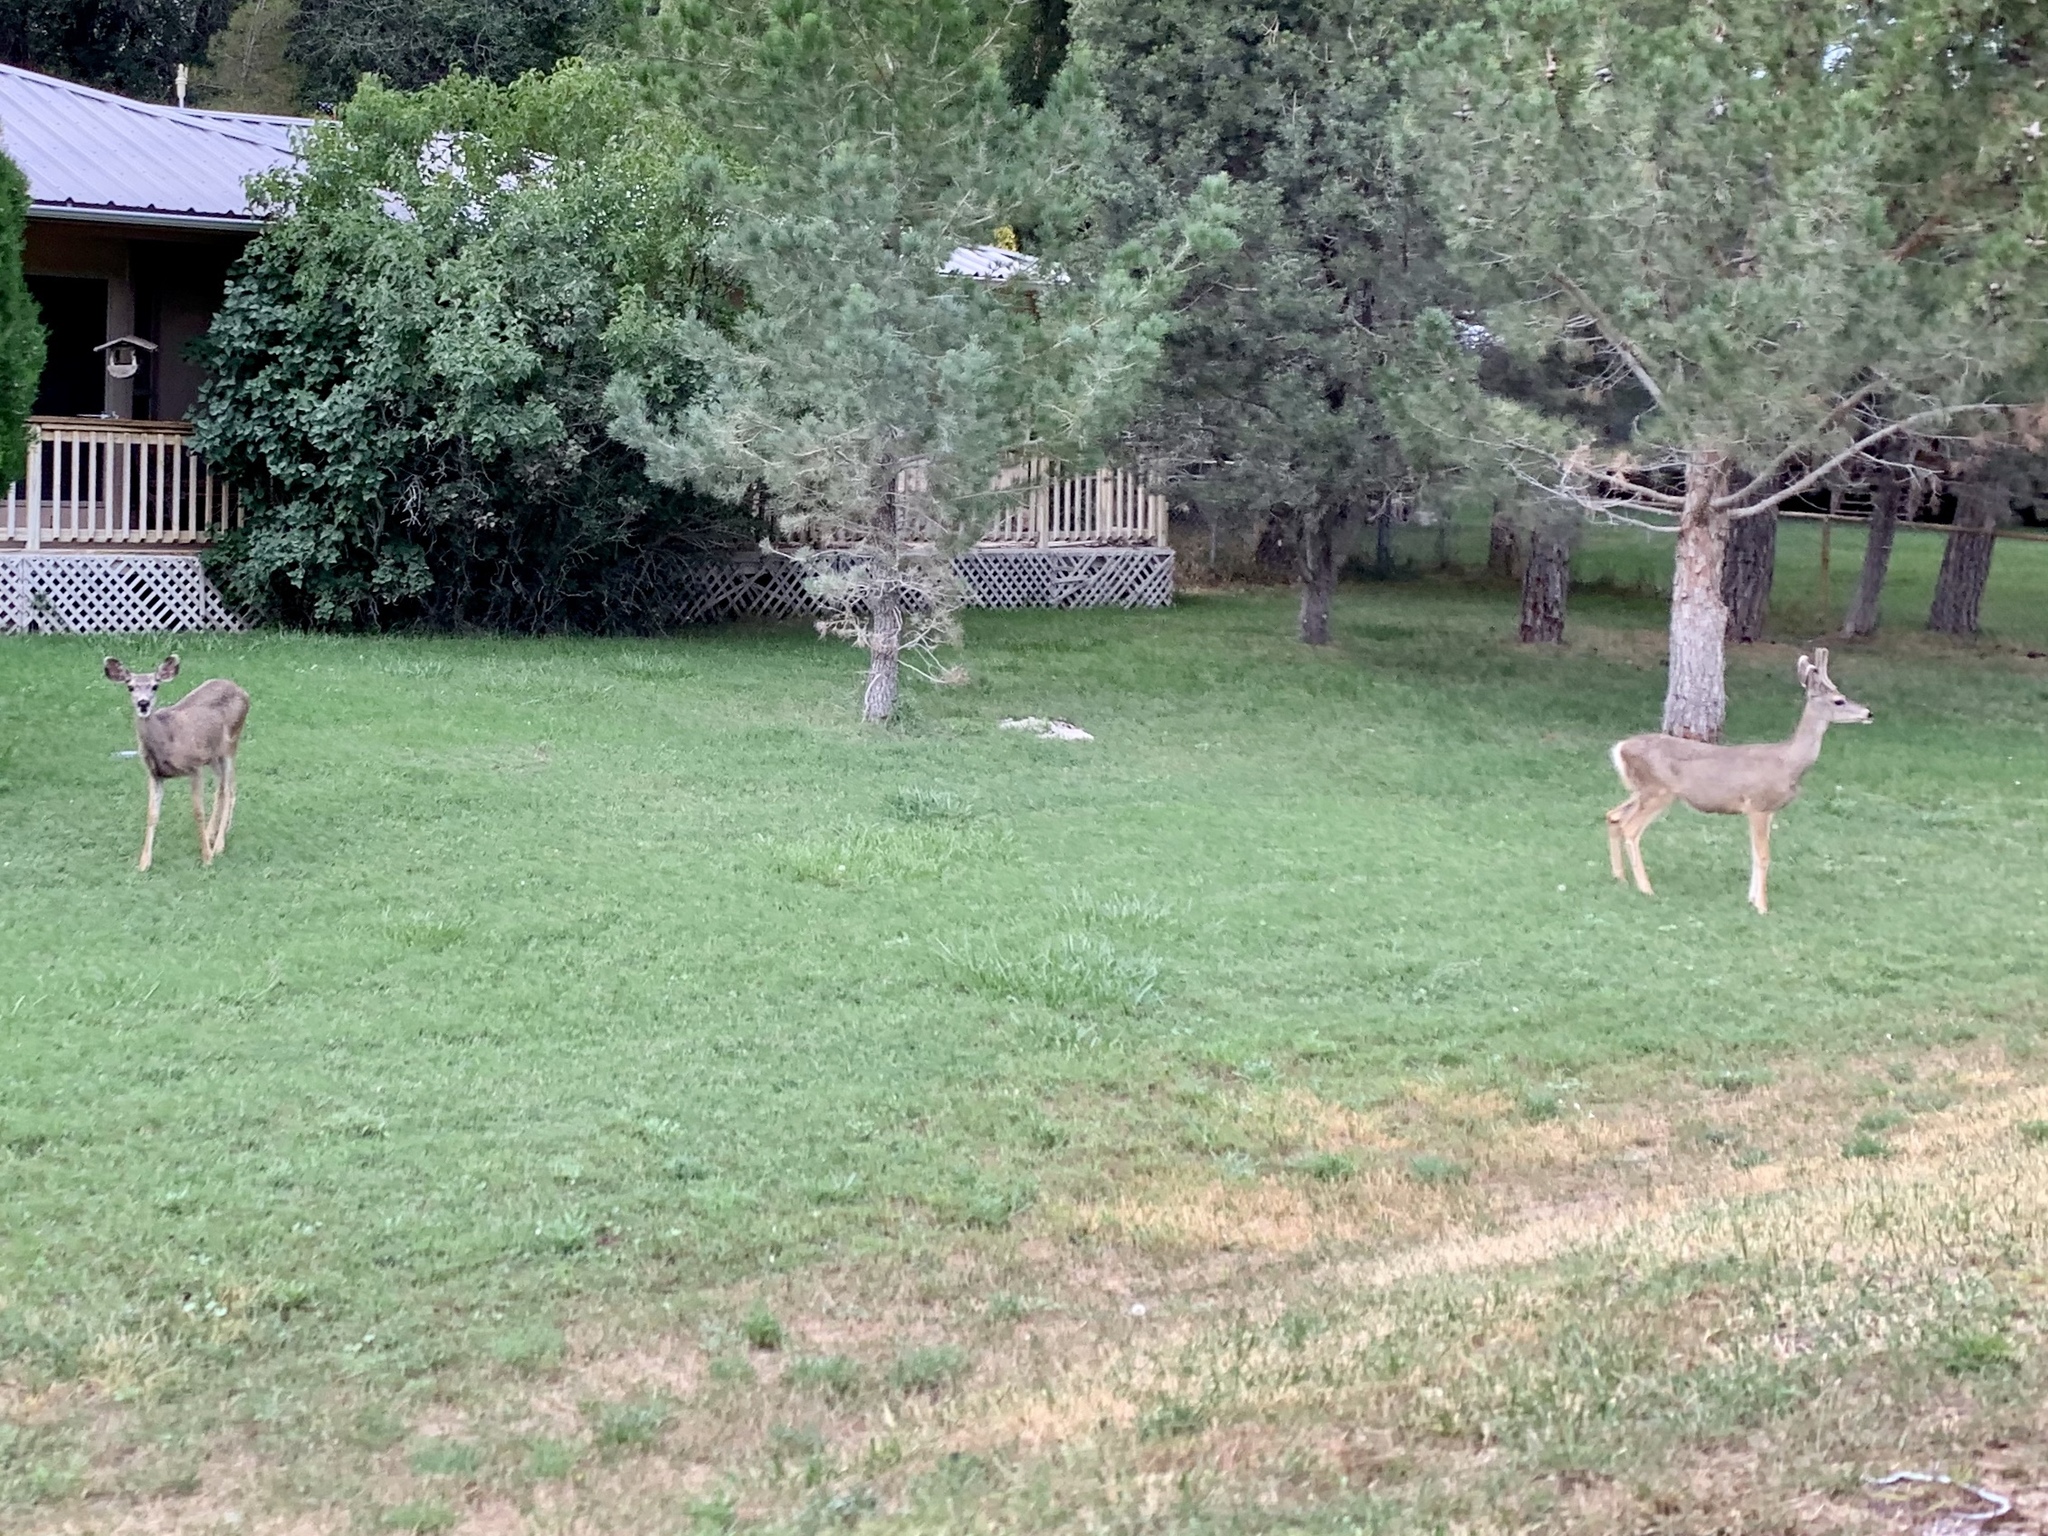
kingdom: Animalia
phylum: Chordata
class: Mammalia
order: Artiodactyla
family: Cervidae
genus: Odocoileus
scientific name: Odocoileus hemionus
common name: Mule deer
